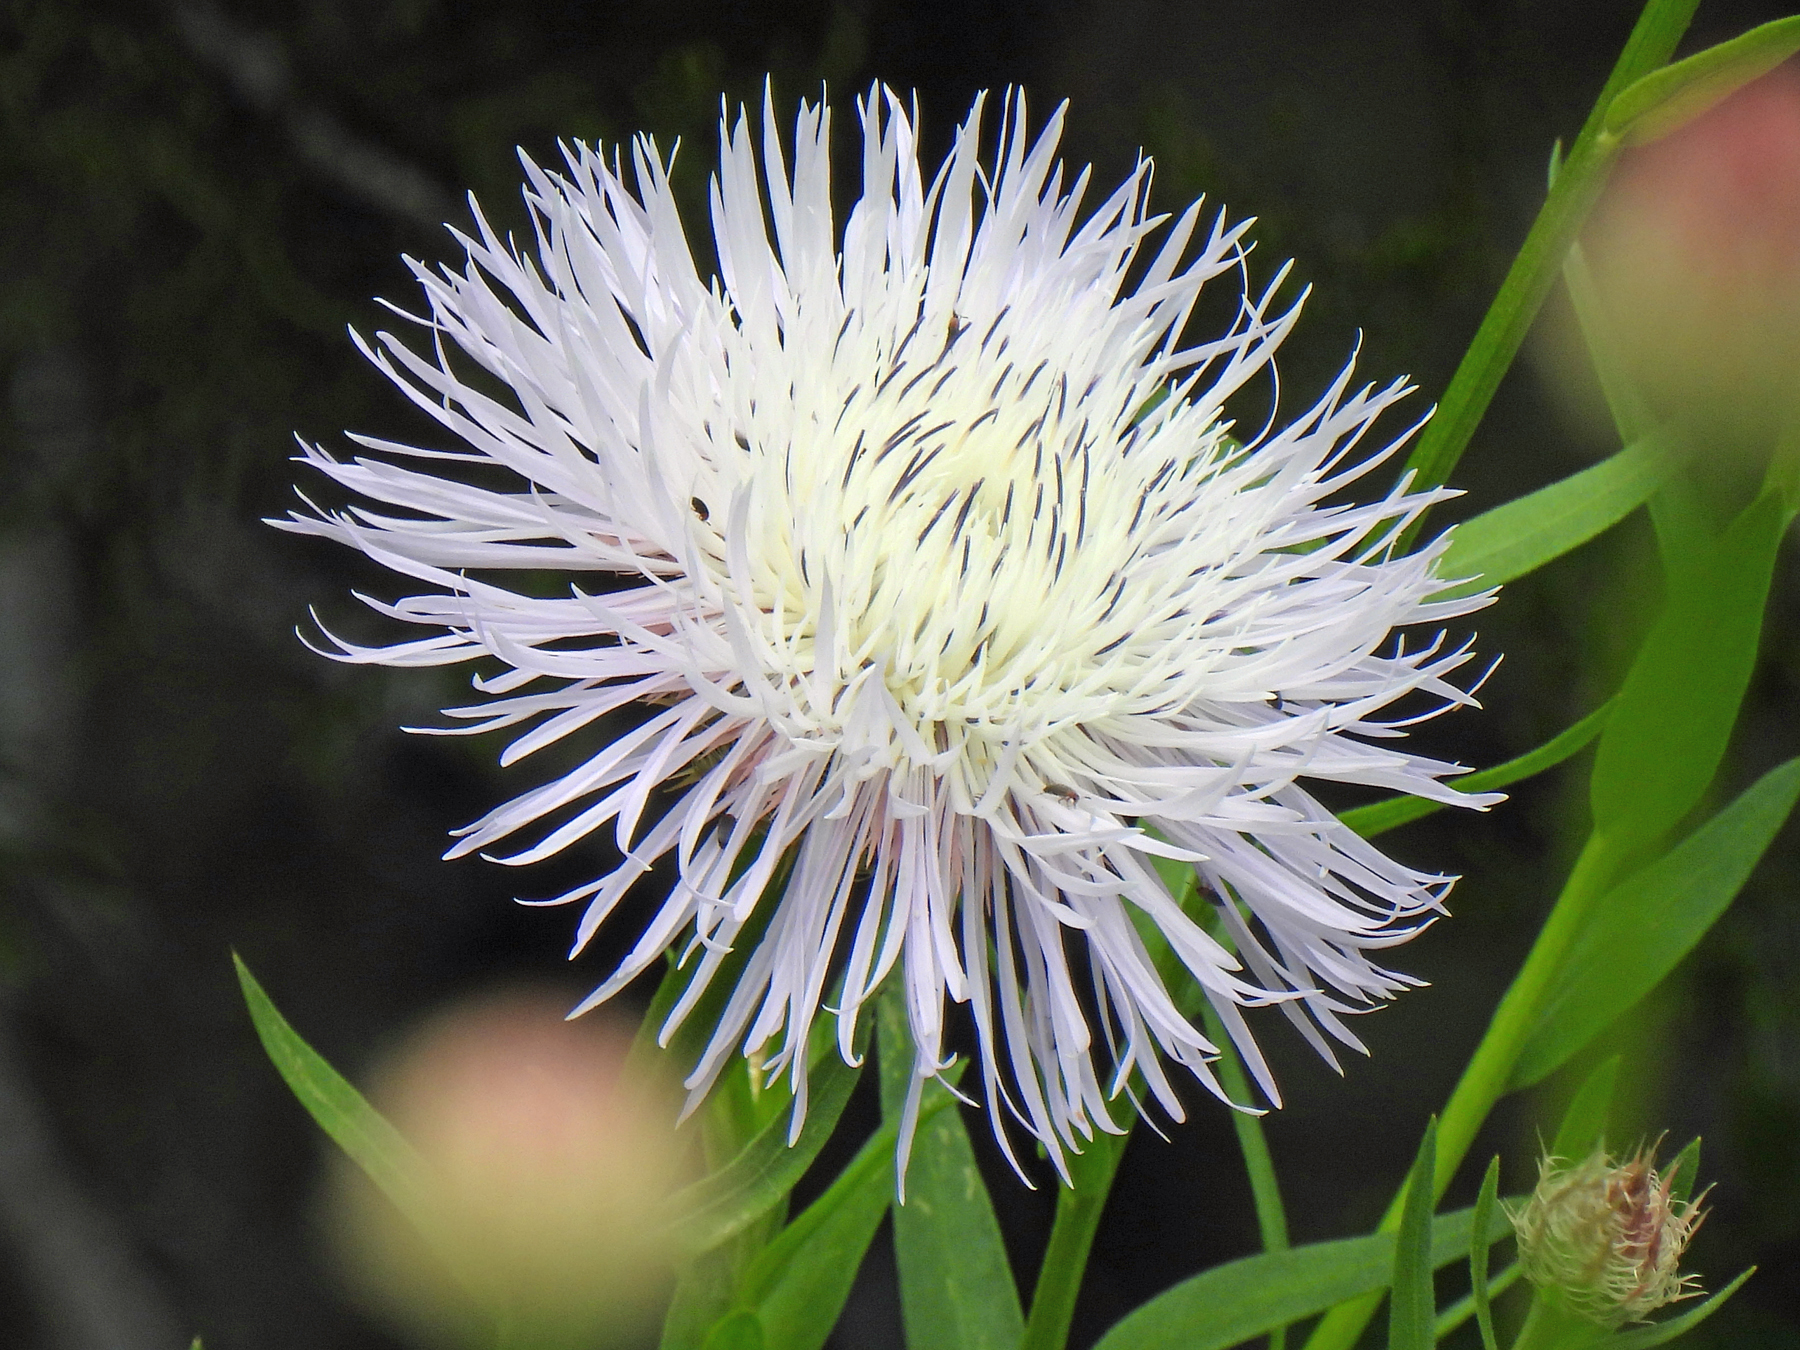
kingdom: Plantae
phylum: Tracheophyta
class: Magnoliopsida
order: Asterales
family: Asteraceae
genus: Plectocephalus
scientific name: Plectocephalus americanus
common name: American basket-flower
